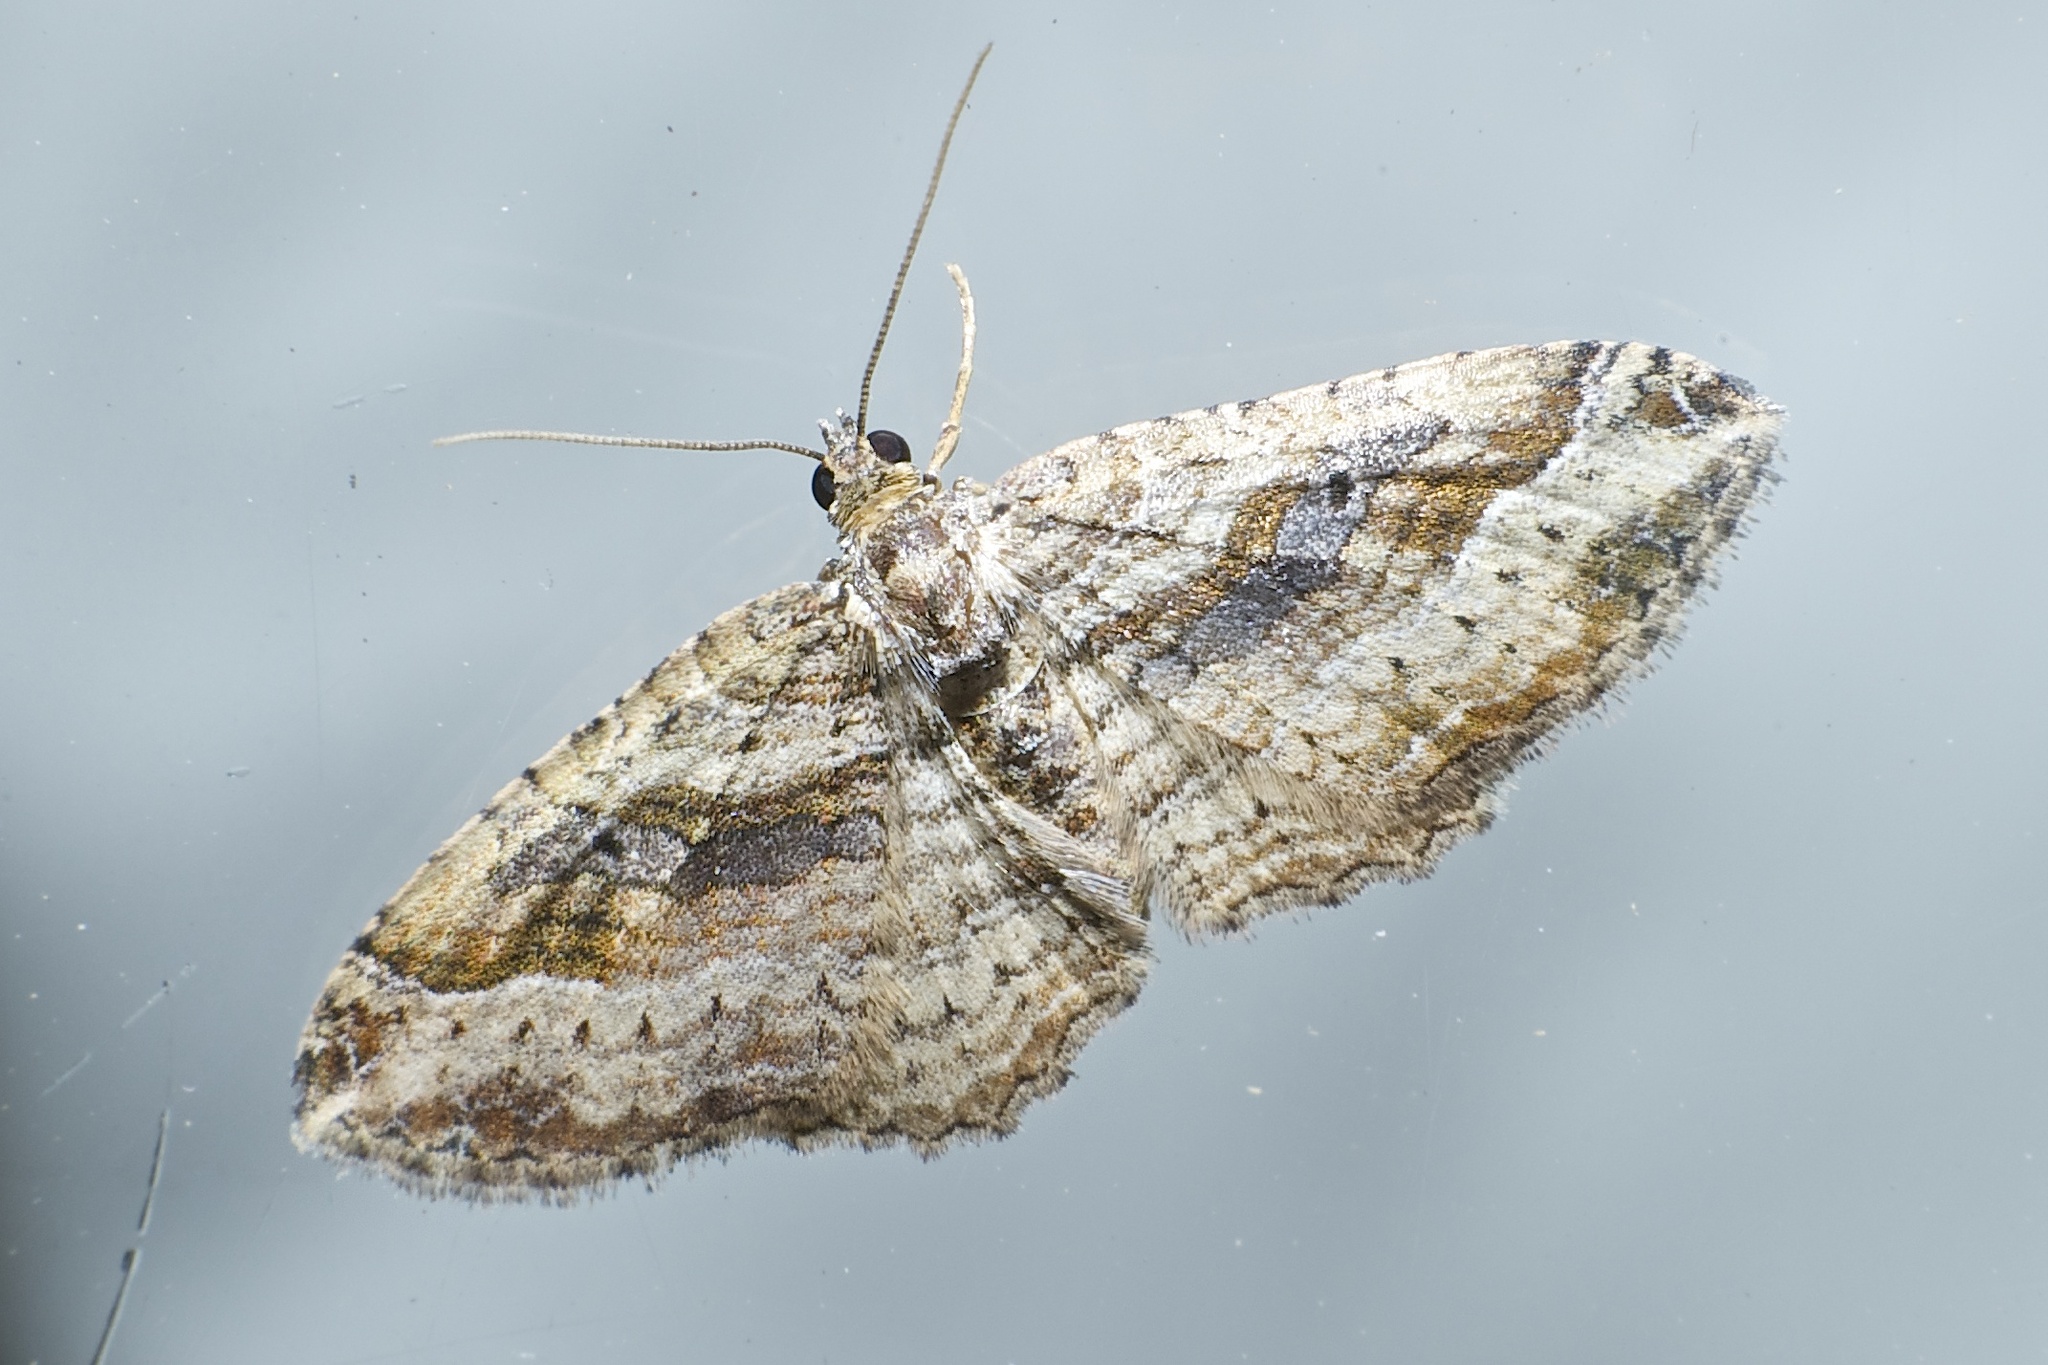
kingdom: Animalia
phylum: Arthropoda
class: Insecta
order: Lepidoptera
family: Geometridae
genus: Costaconvexa
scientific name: Costaconvexa centrostrigaria
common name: Bent-line carpet
